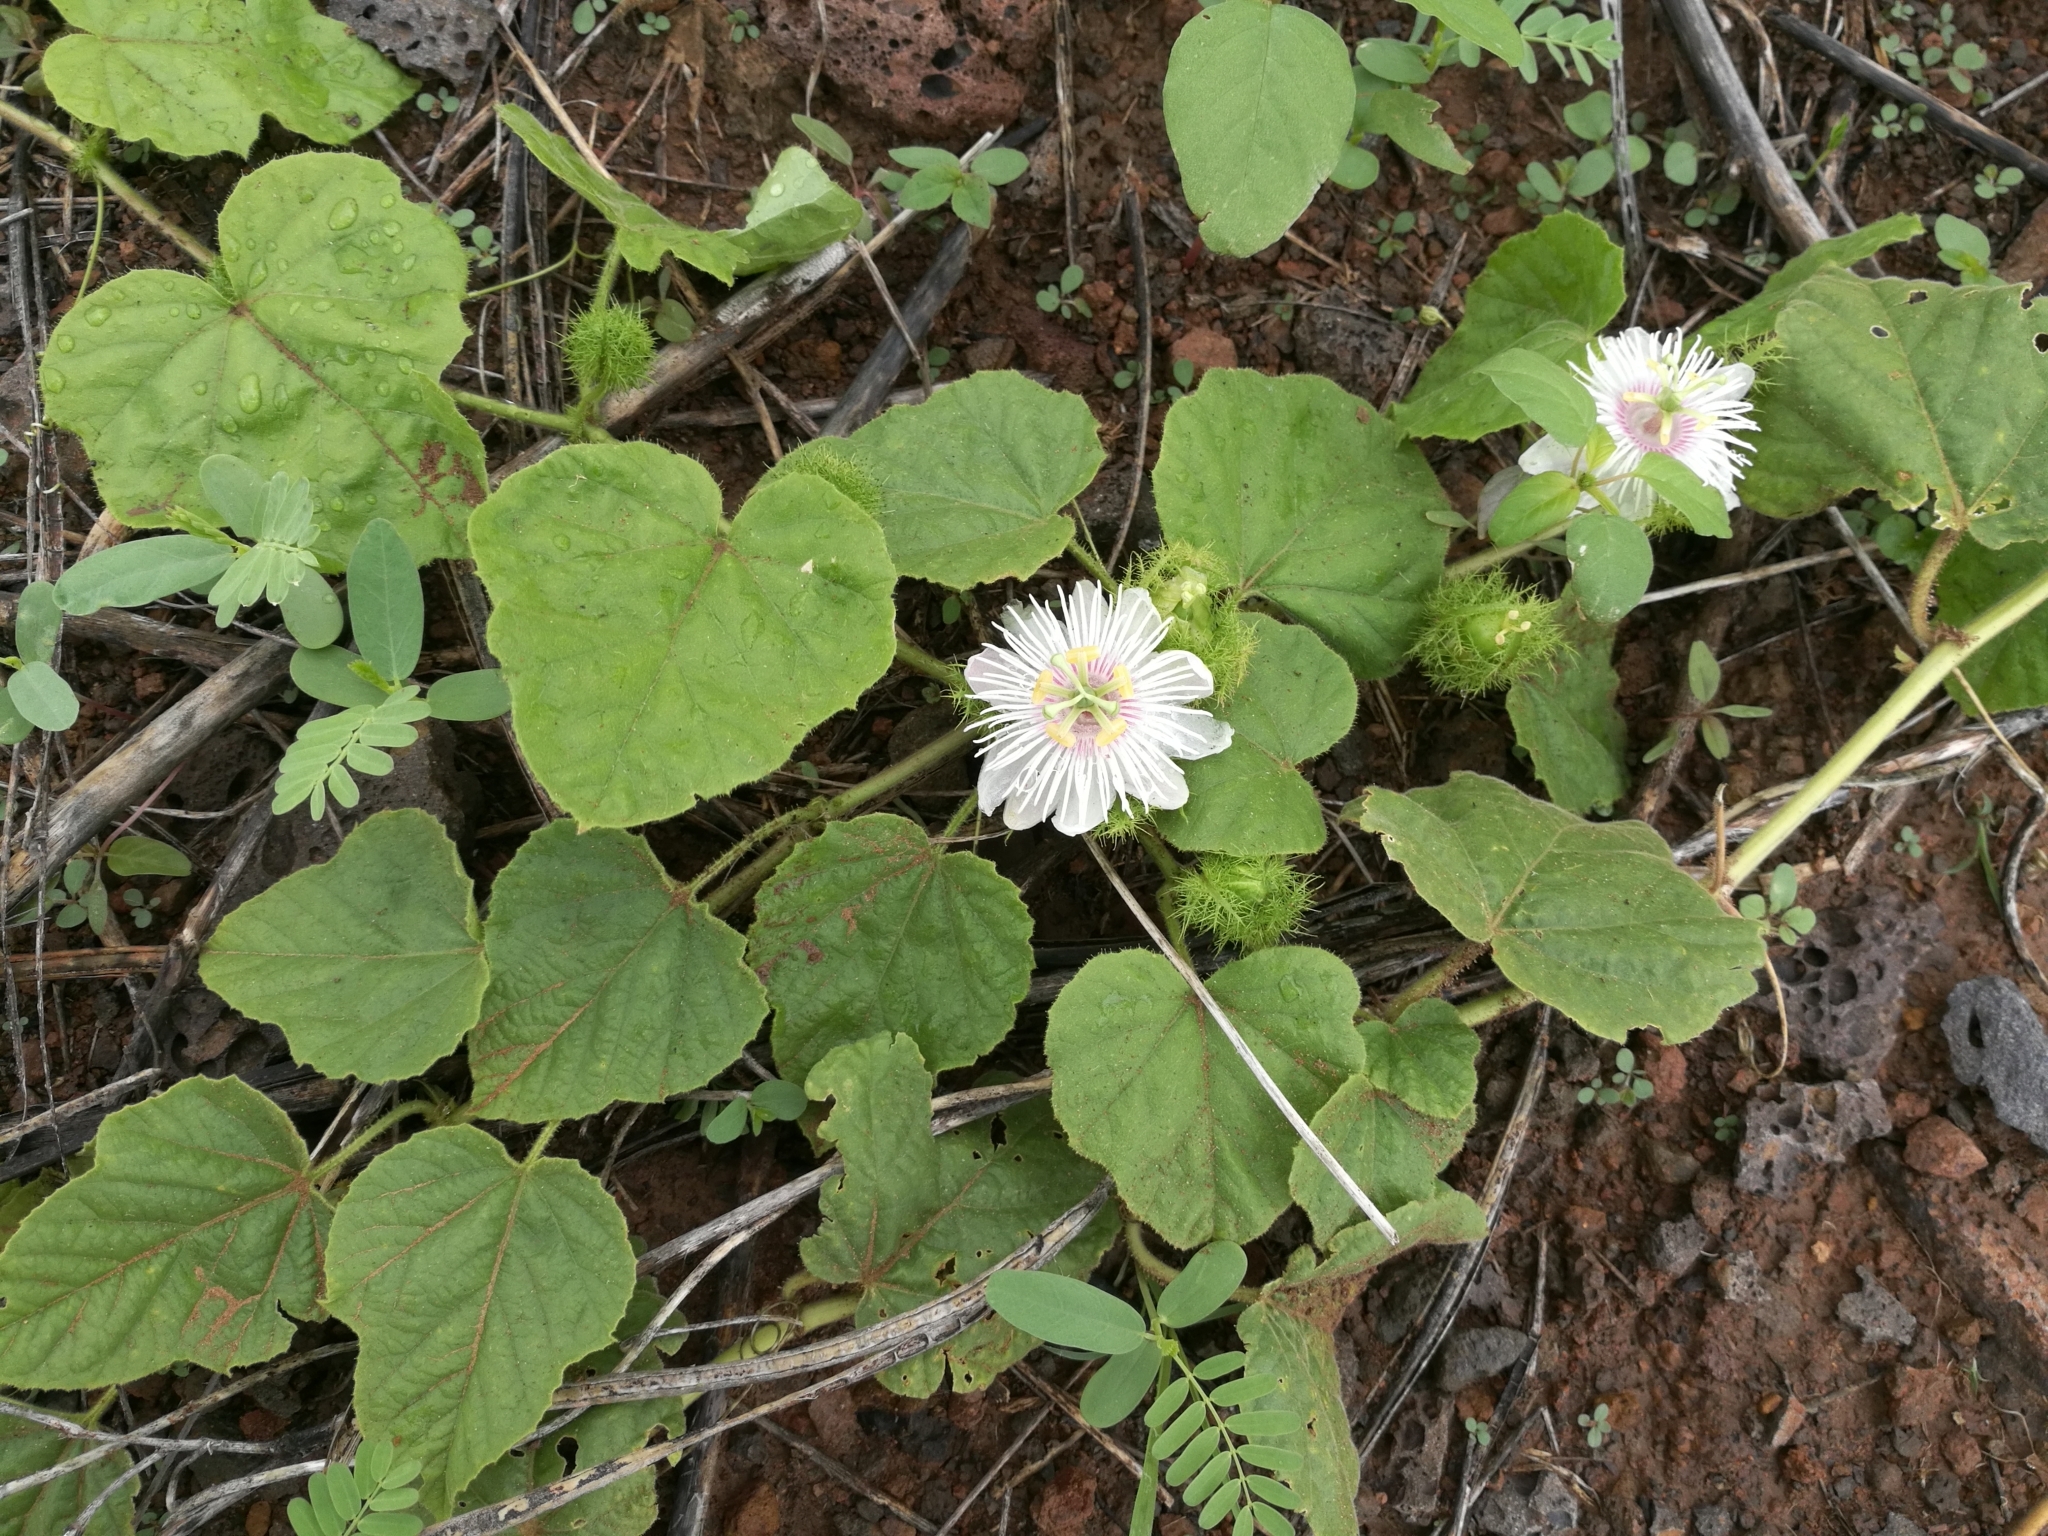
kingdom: Plantae
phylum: Tracheophyta
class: Magnoliopsida
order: Malpighiales
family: Passifloraceae
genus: Passiflora
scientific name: Passiflora foetida
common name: Fetid passionflower
